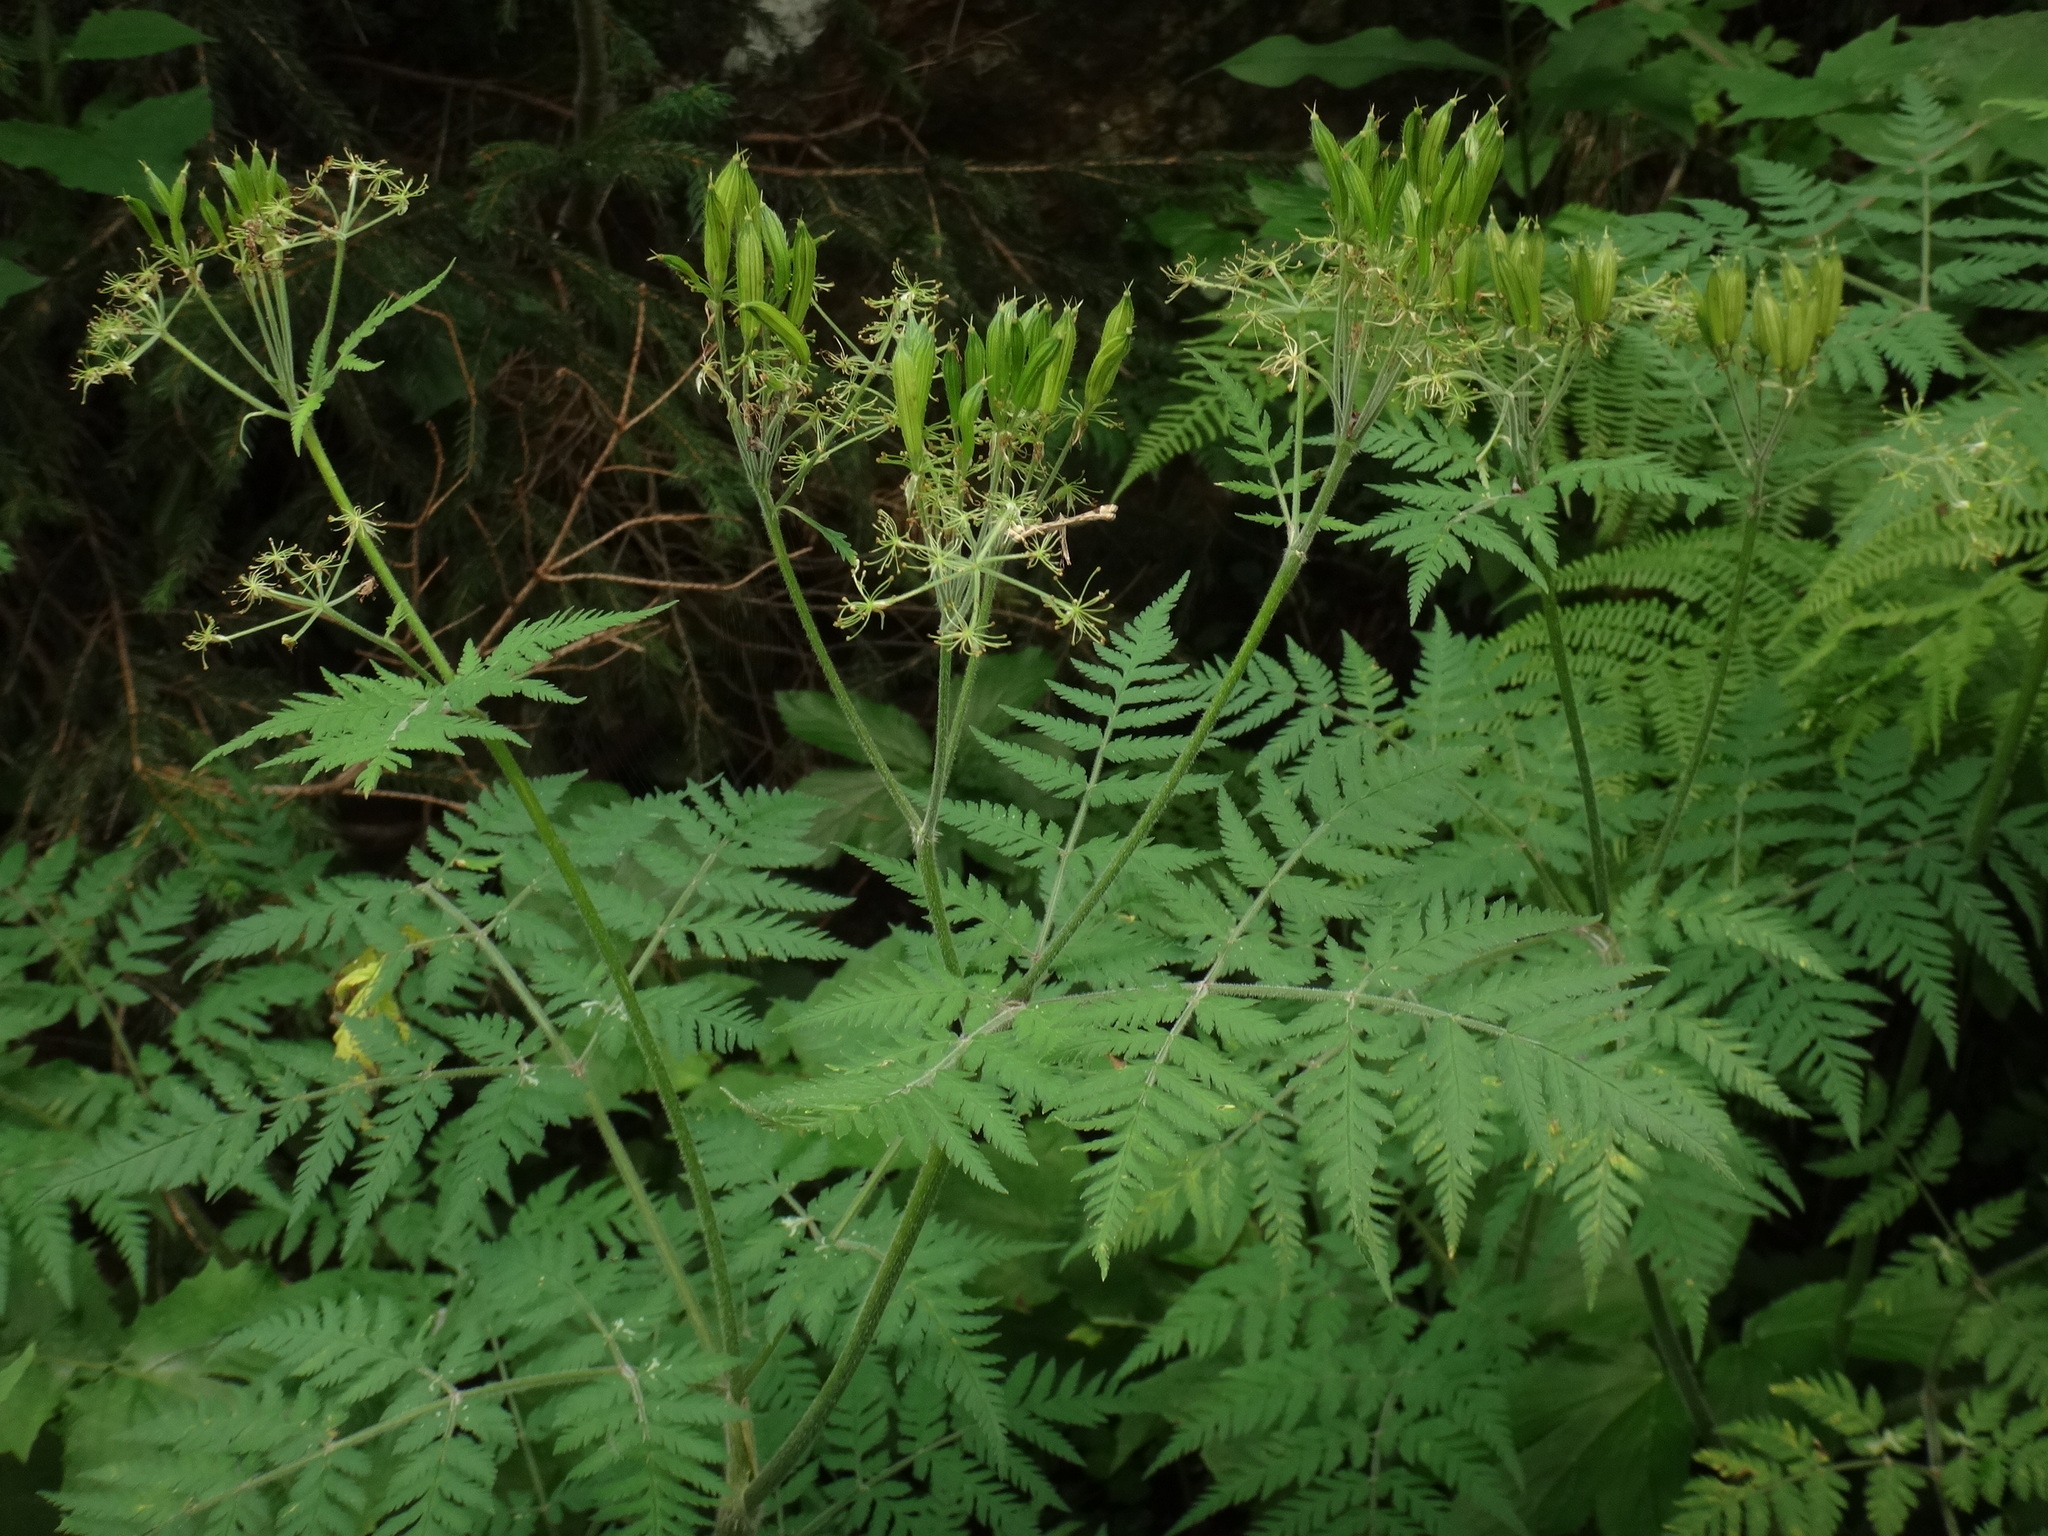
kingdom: Plantae
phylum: Tracheophyta
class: Magnoliopsida
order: Apiales
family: Apiaceae
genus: Myrrhis
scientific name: Myrrhis odorata
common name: Sweet cicely
